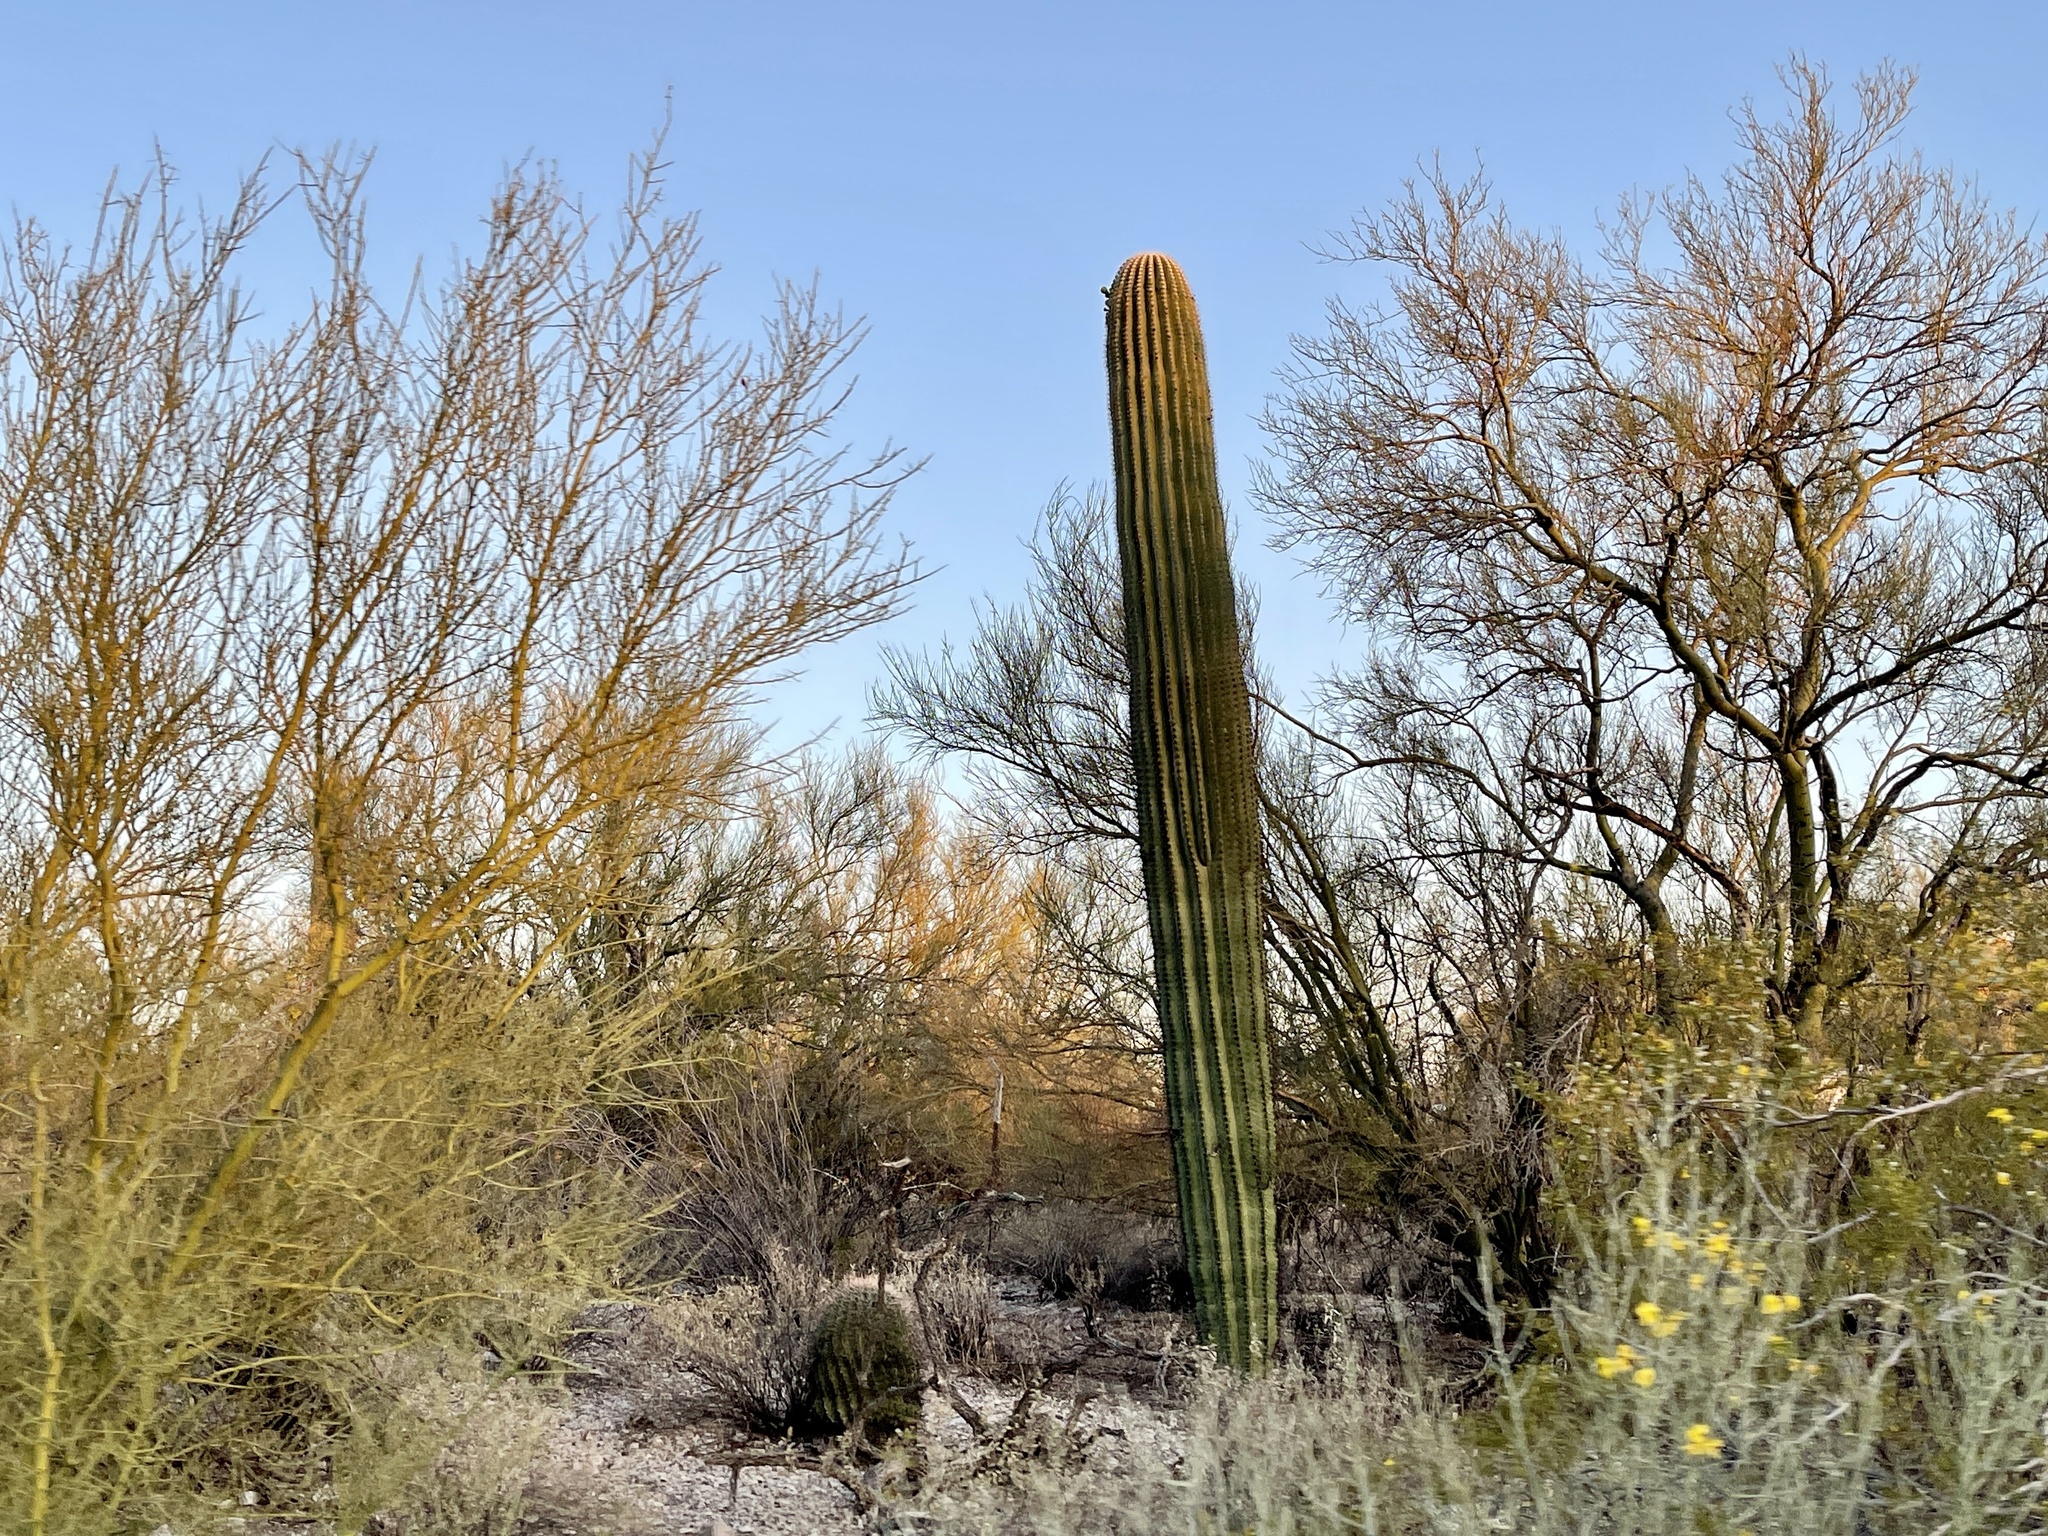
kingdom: Plantae
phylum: Tracheophyta
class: Magnoliopsida
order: Caryophyllales
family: Cactaceae
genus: Carnegiea
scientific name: Carnegiea gigantea
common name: Saguaro
